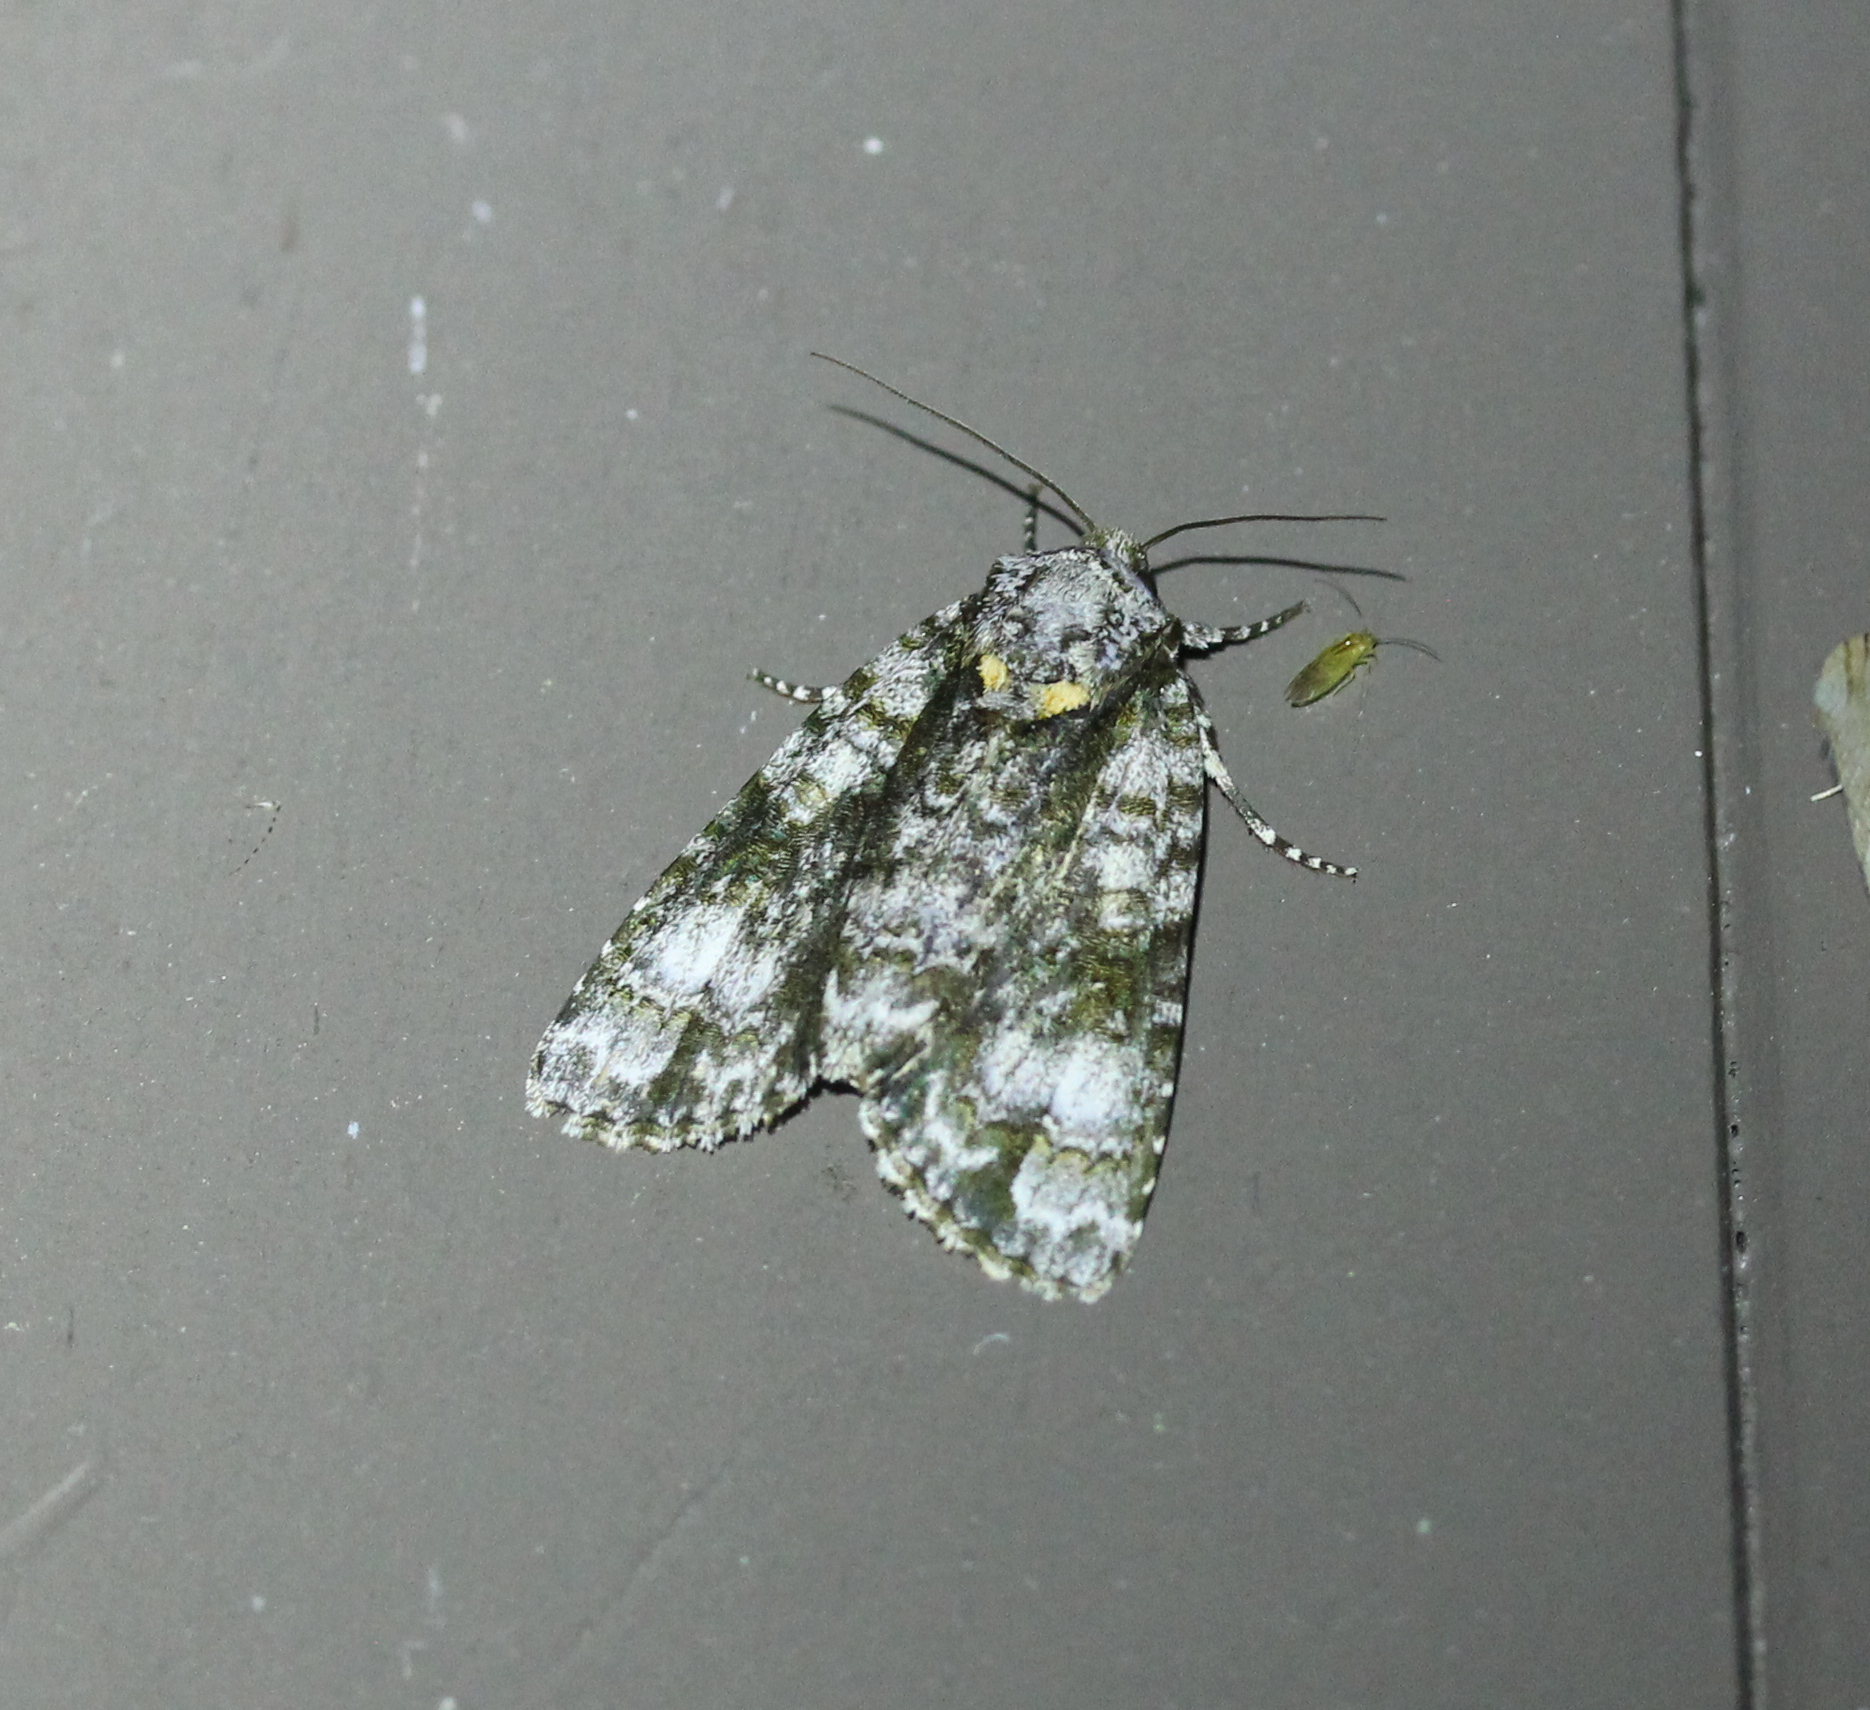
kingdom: Animalia
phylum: Arthropoda
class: Insecta
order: Lepidoptera
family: Noctuidae
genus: Acronicta
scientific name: Acronicta superans
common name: Splendid dagger
